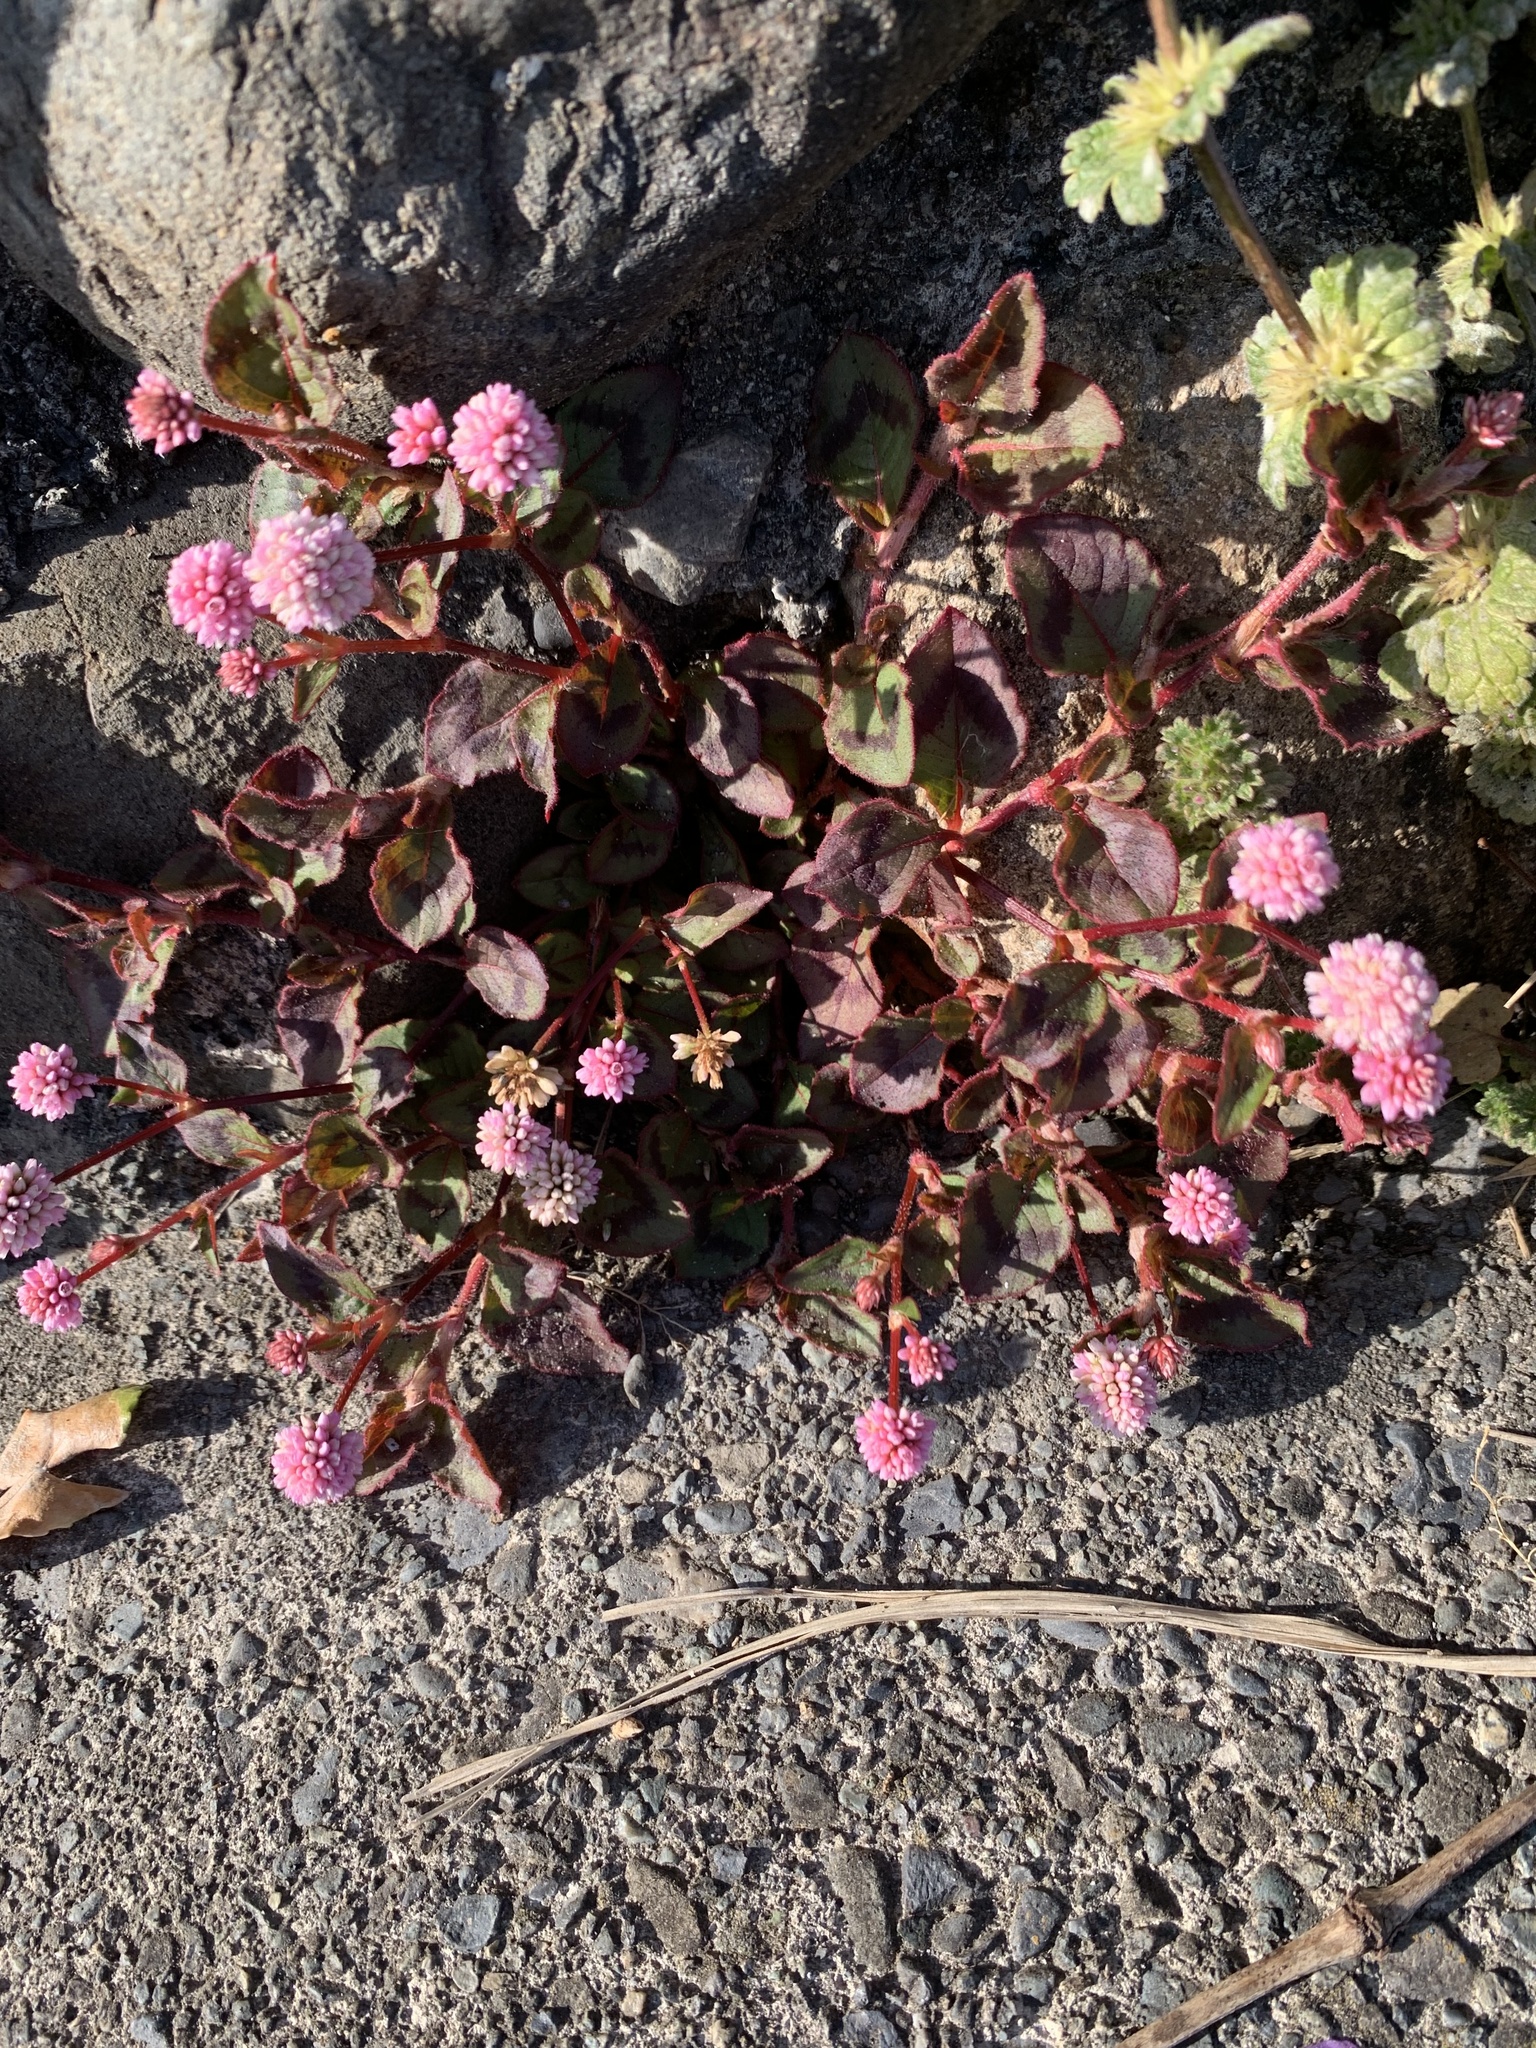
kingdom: Plantae
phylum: Tracheophyta
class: Magnoliopsida
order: Caryophyllales
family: Polygonaceae
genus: Persicaria
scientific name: Persicaria capitata
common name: Pinkhead smartweed
